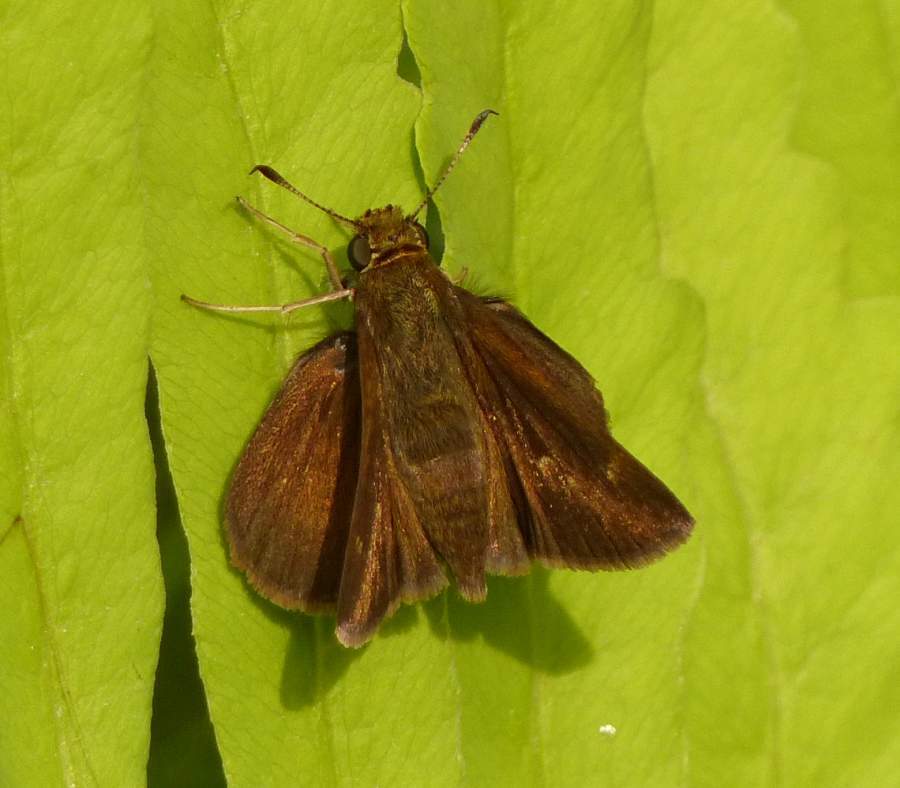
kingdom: Animalia
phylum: Arthropoda
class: Insecta
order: Lepidoptera
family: Hesperiidae
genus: Euphyes
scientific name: Euphyes vestris
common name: Dun skipper
